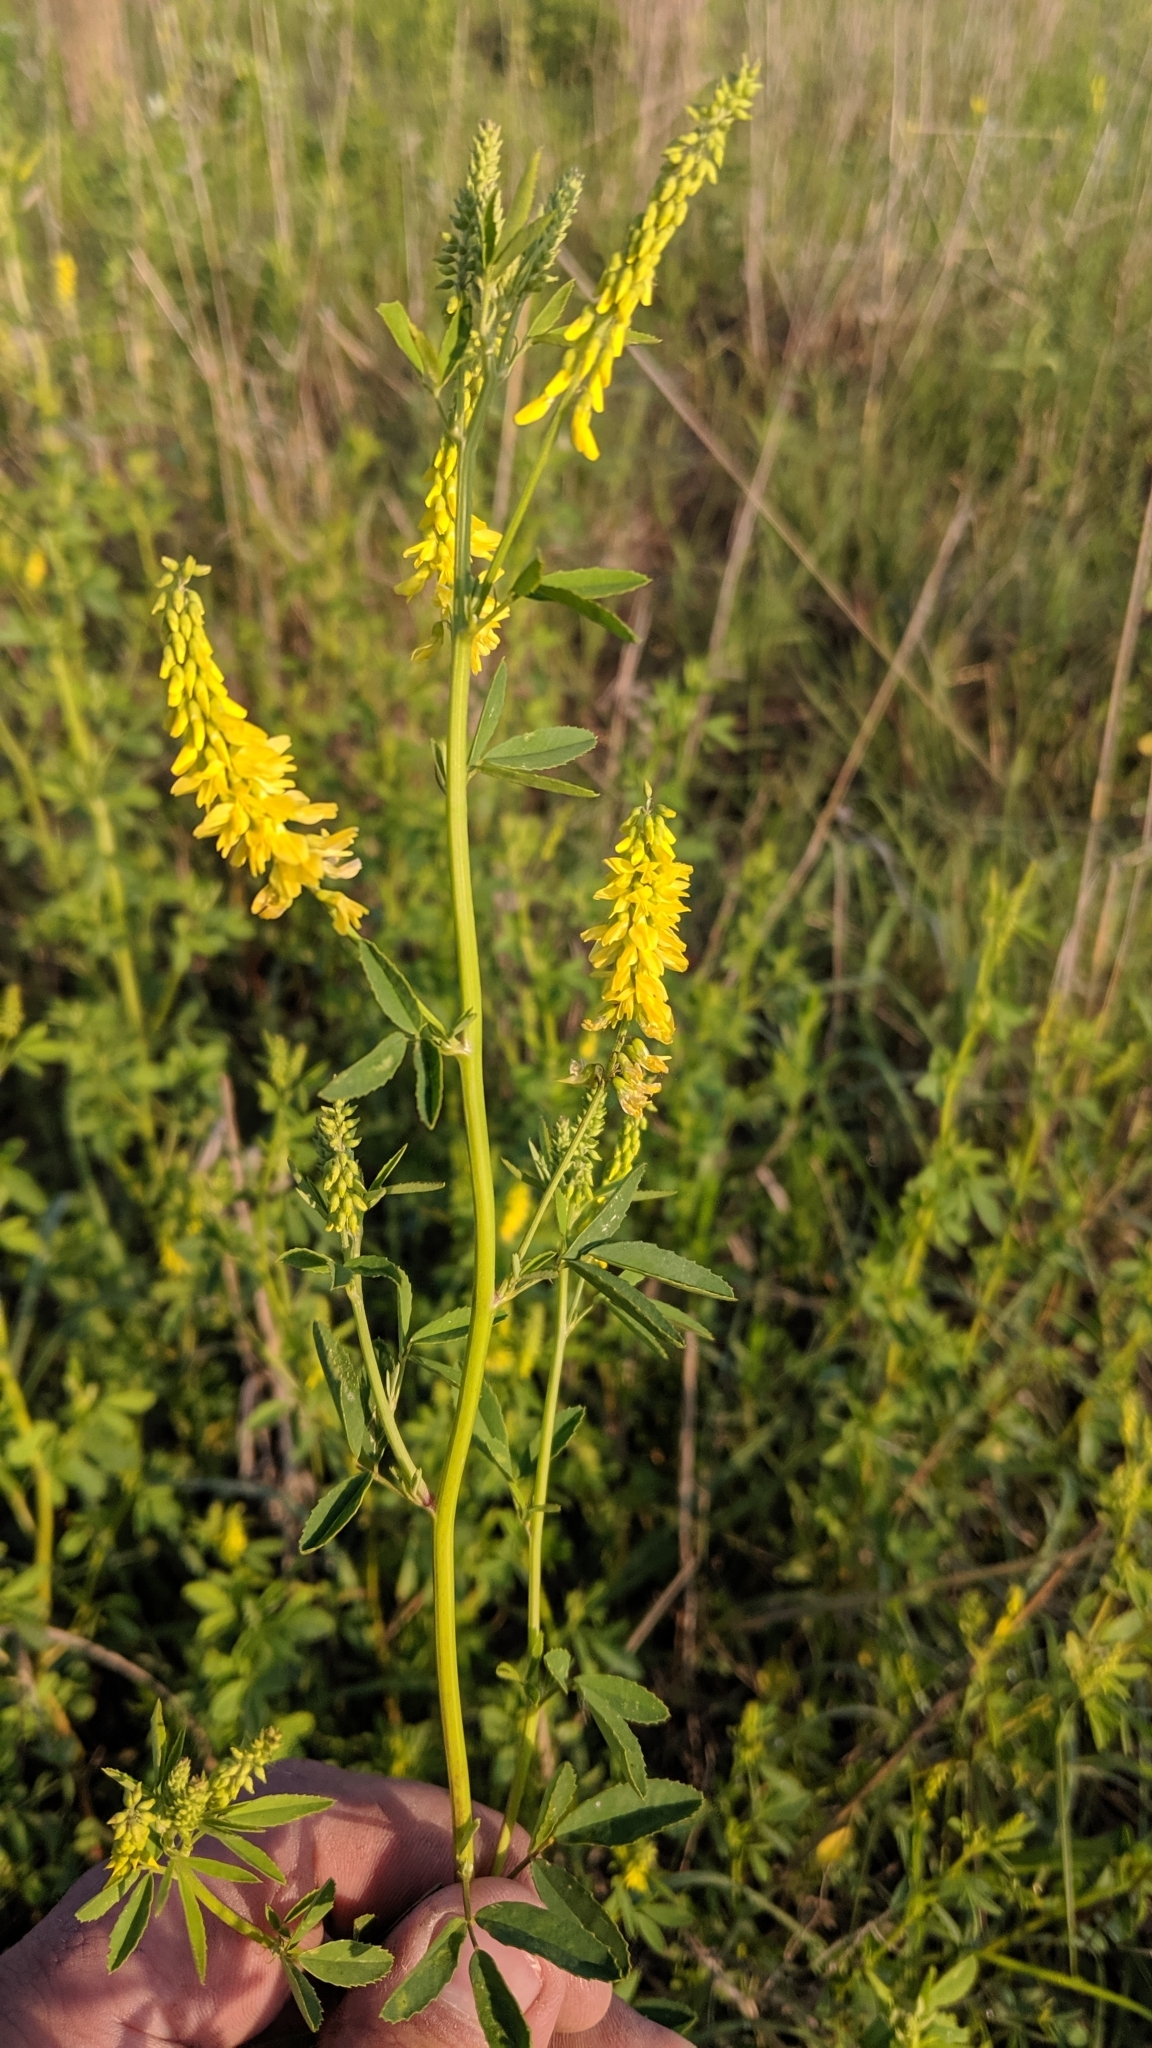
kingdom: Plantae
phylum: Tracheophyta
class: Magnoliopsida
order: Fabales
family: Fabaceae
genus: Melilotus
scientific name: Melilotus officinalis
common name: Sweetclover
